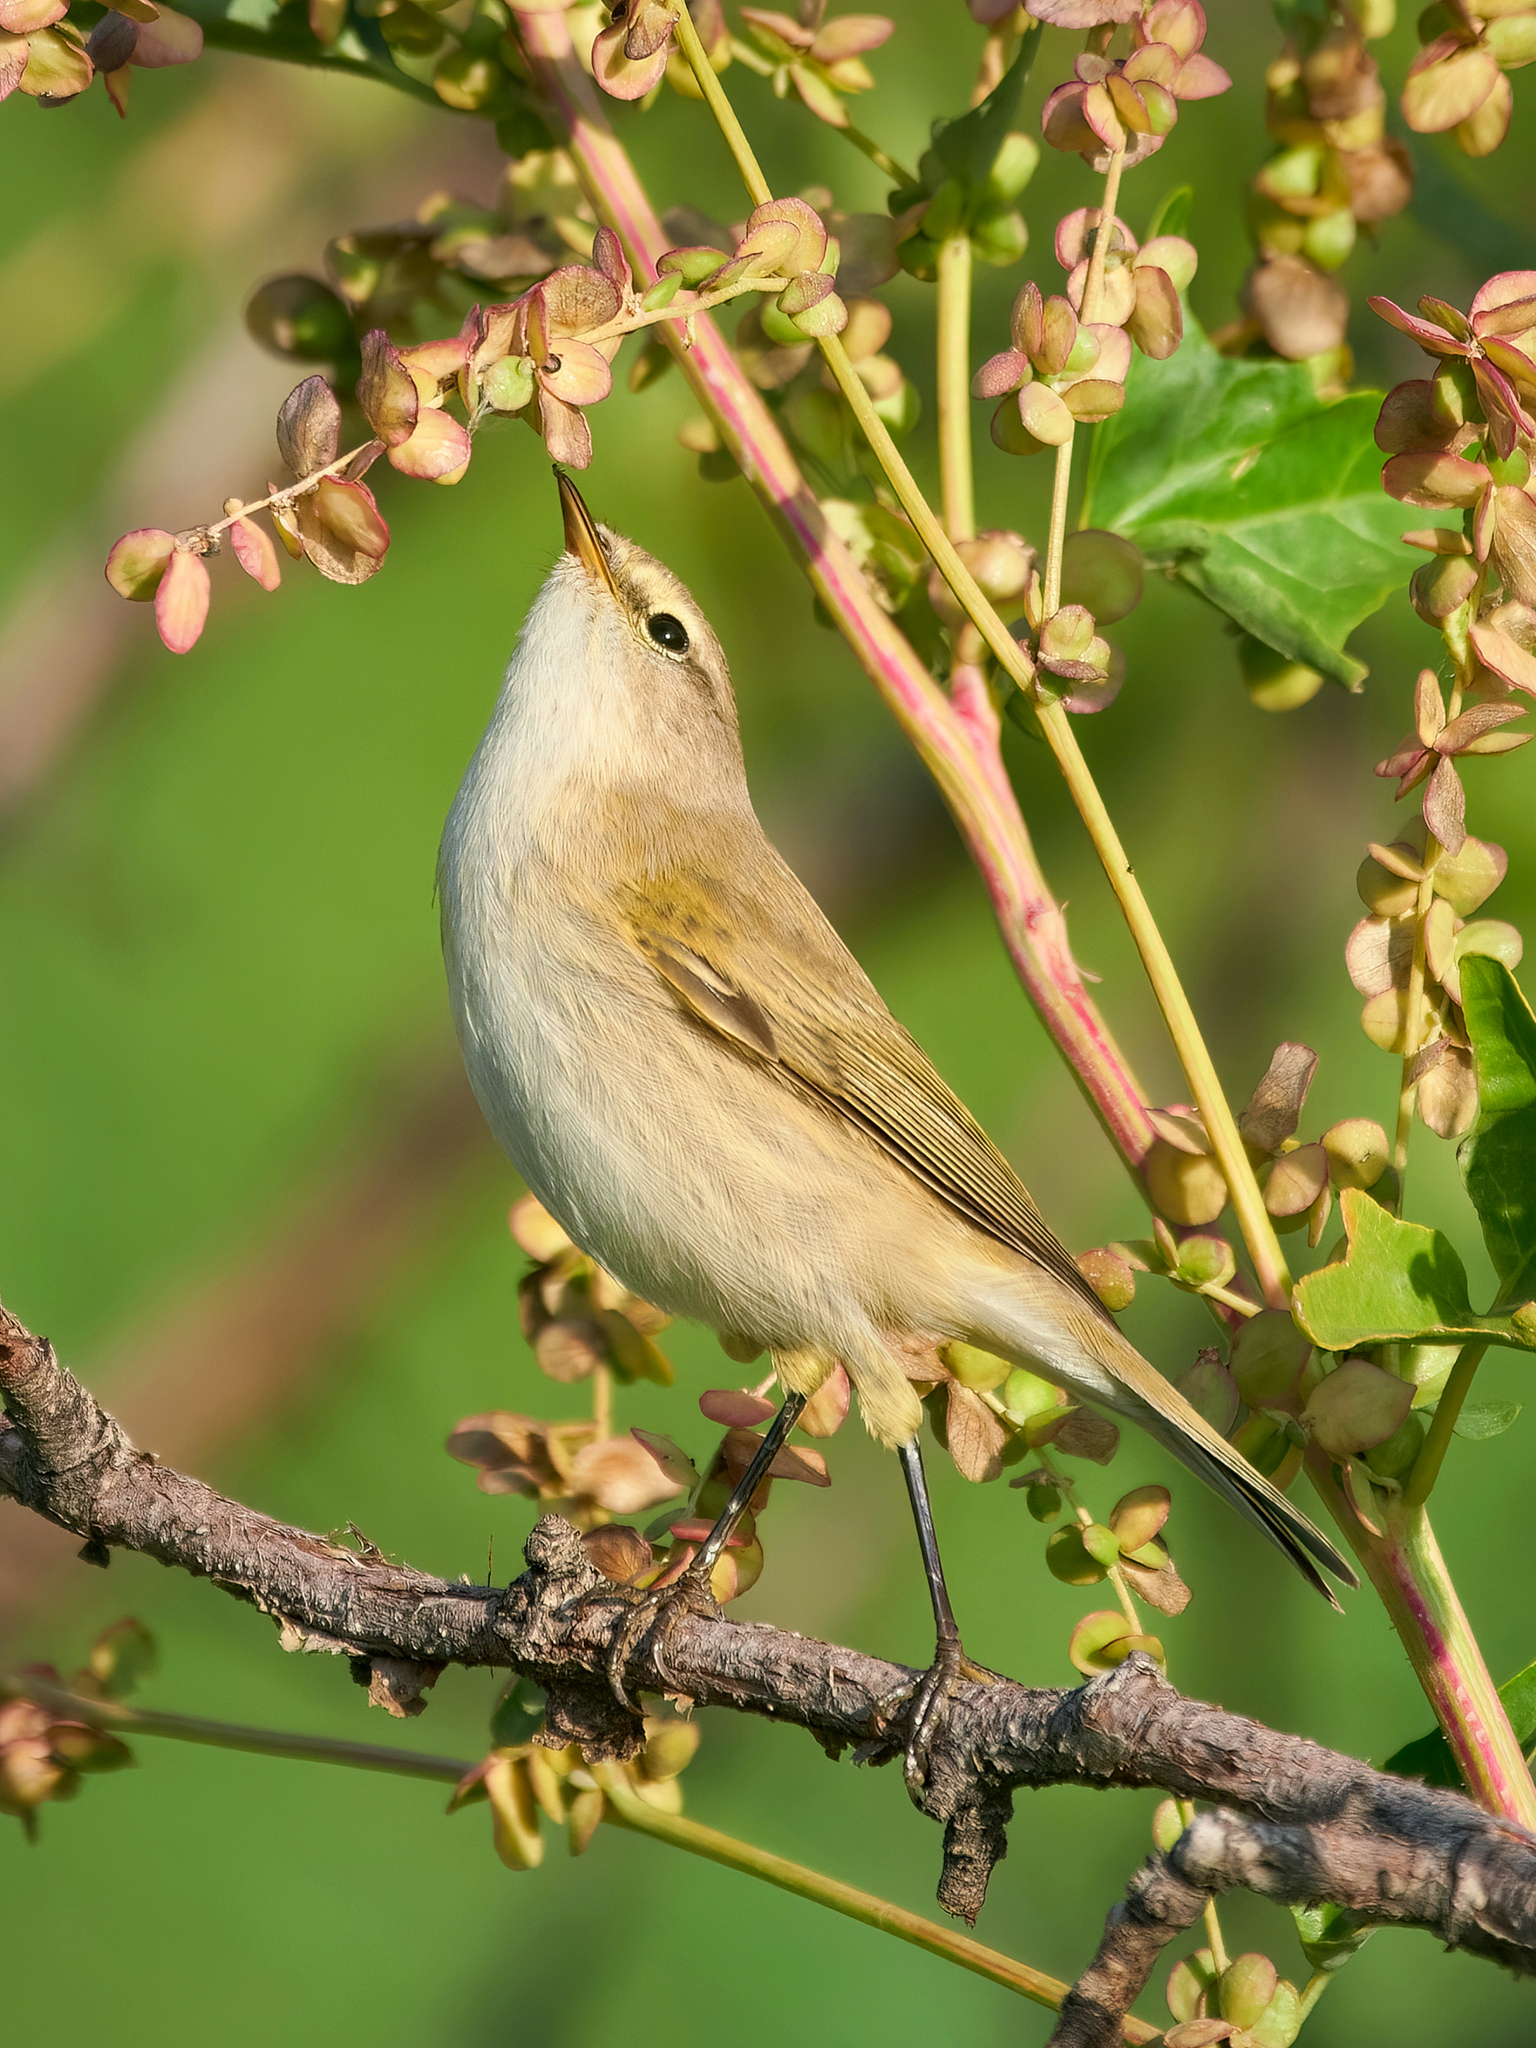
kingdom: Animalia
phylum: Chordata
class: Aves
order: Passeriformes
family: Phylloscopidae
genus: Phylloscopus
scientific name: Phylloscopus collybita
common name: Common chiffchaff
